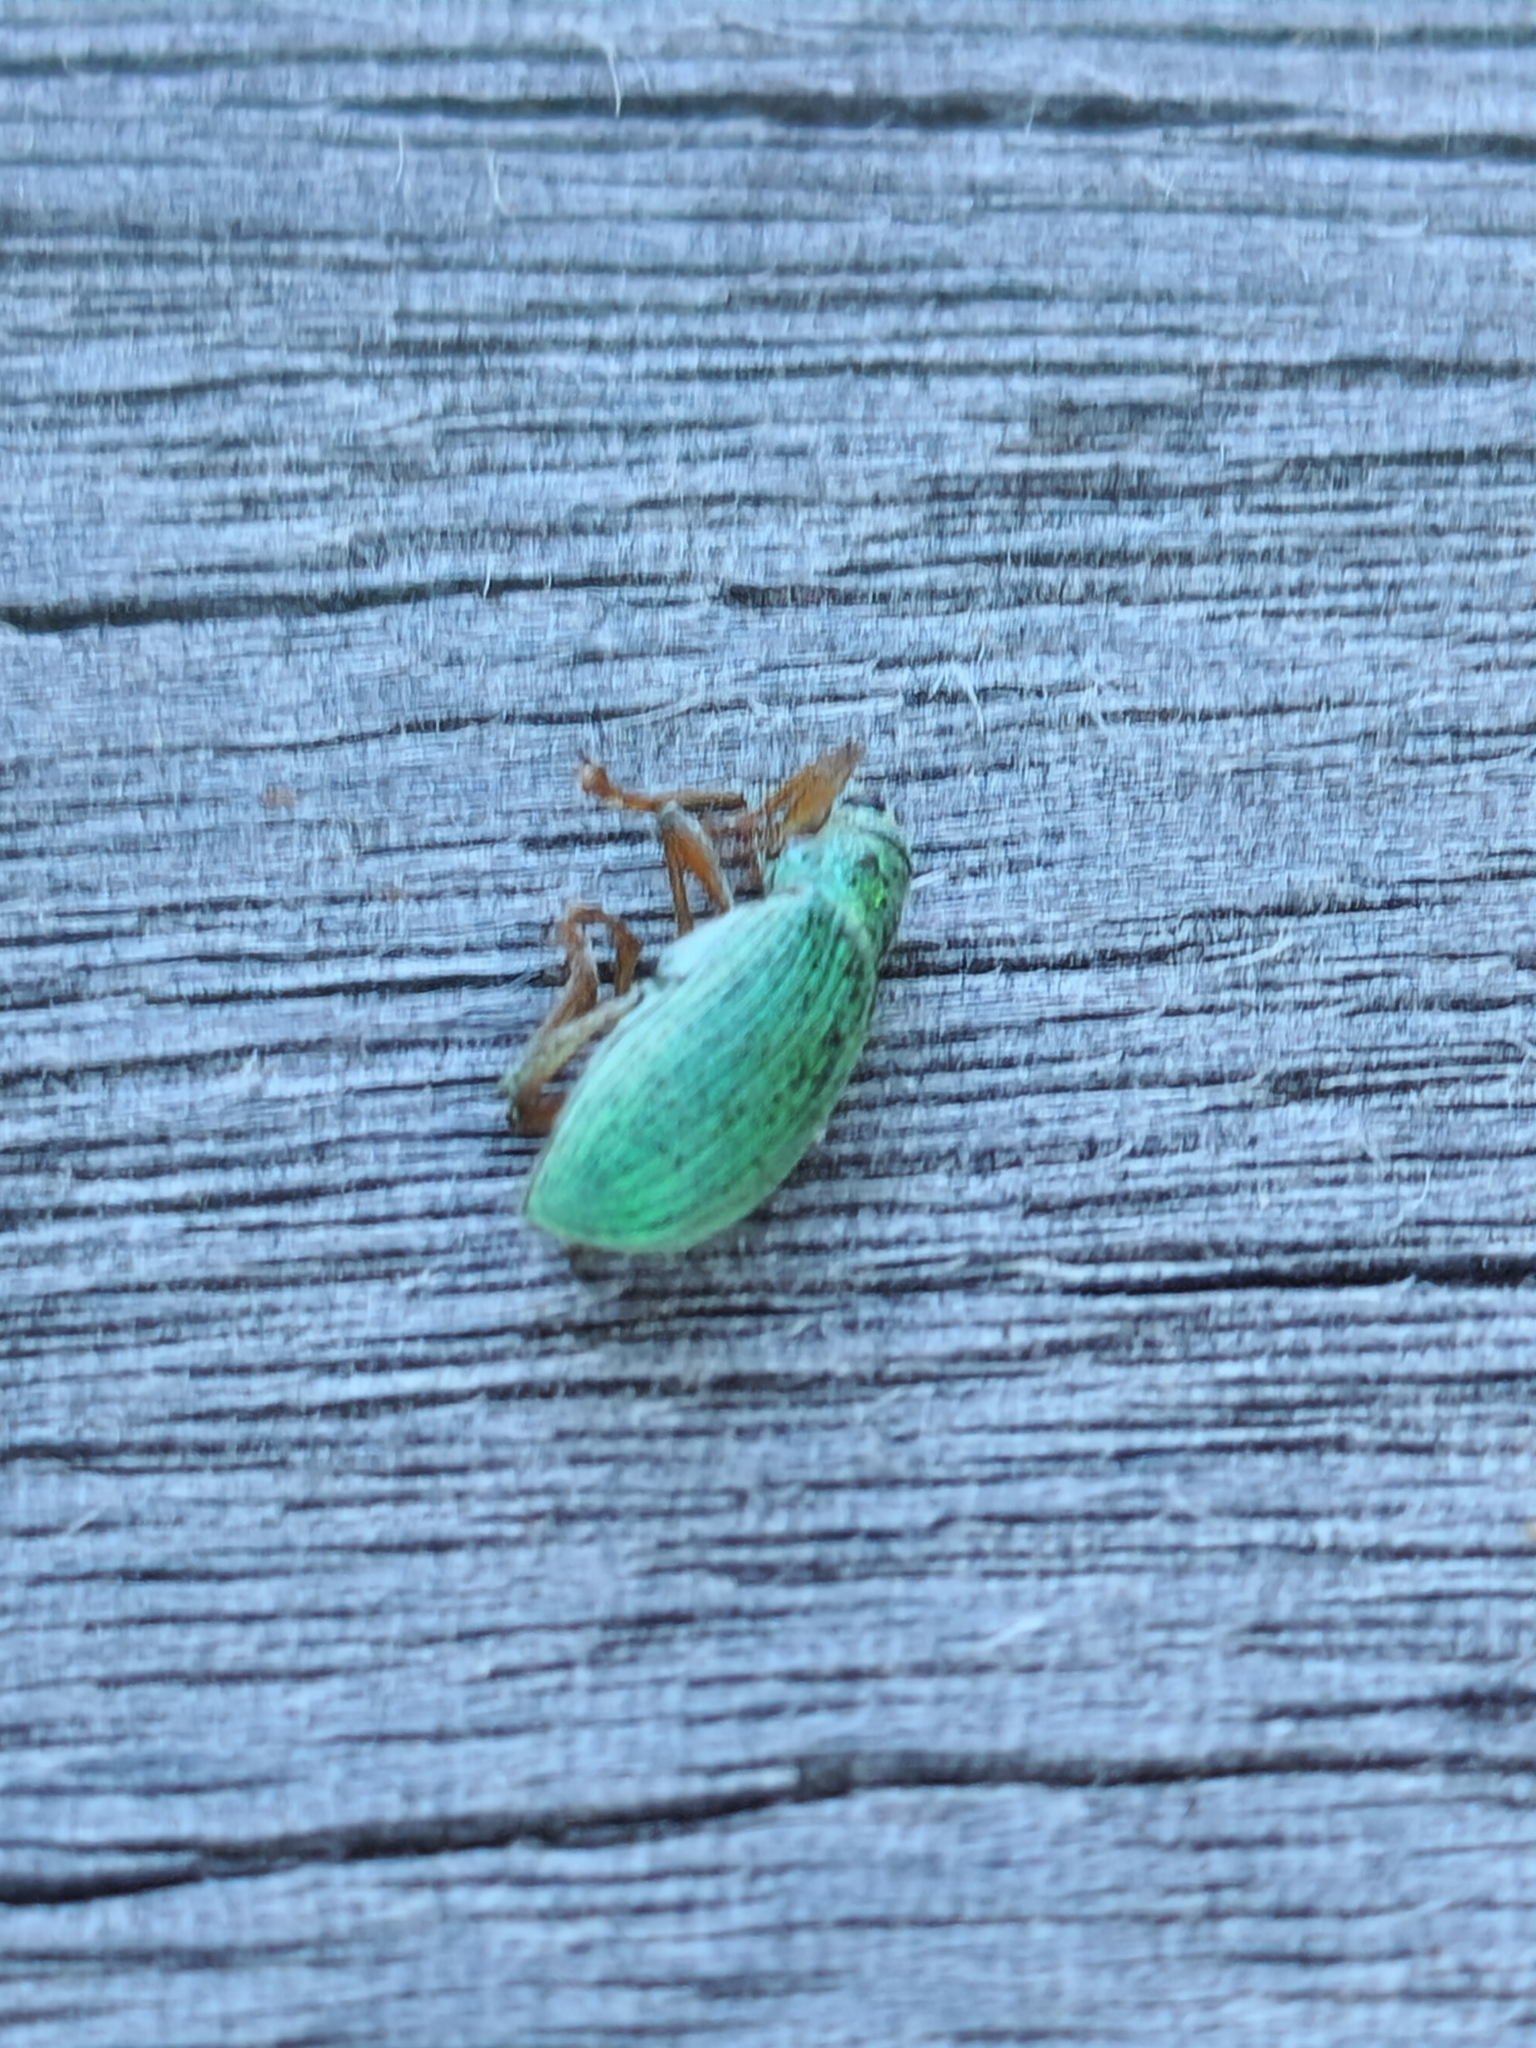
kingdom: Animalia
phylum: Arthropoda
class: Insecta
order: Coleoptera
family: Curculionidae
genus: Polydrusus
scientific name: Polydrusus formosus
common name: Weevil
